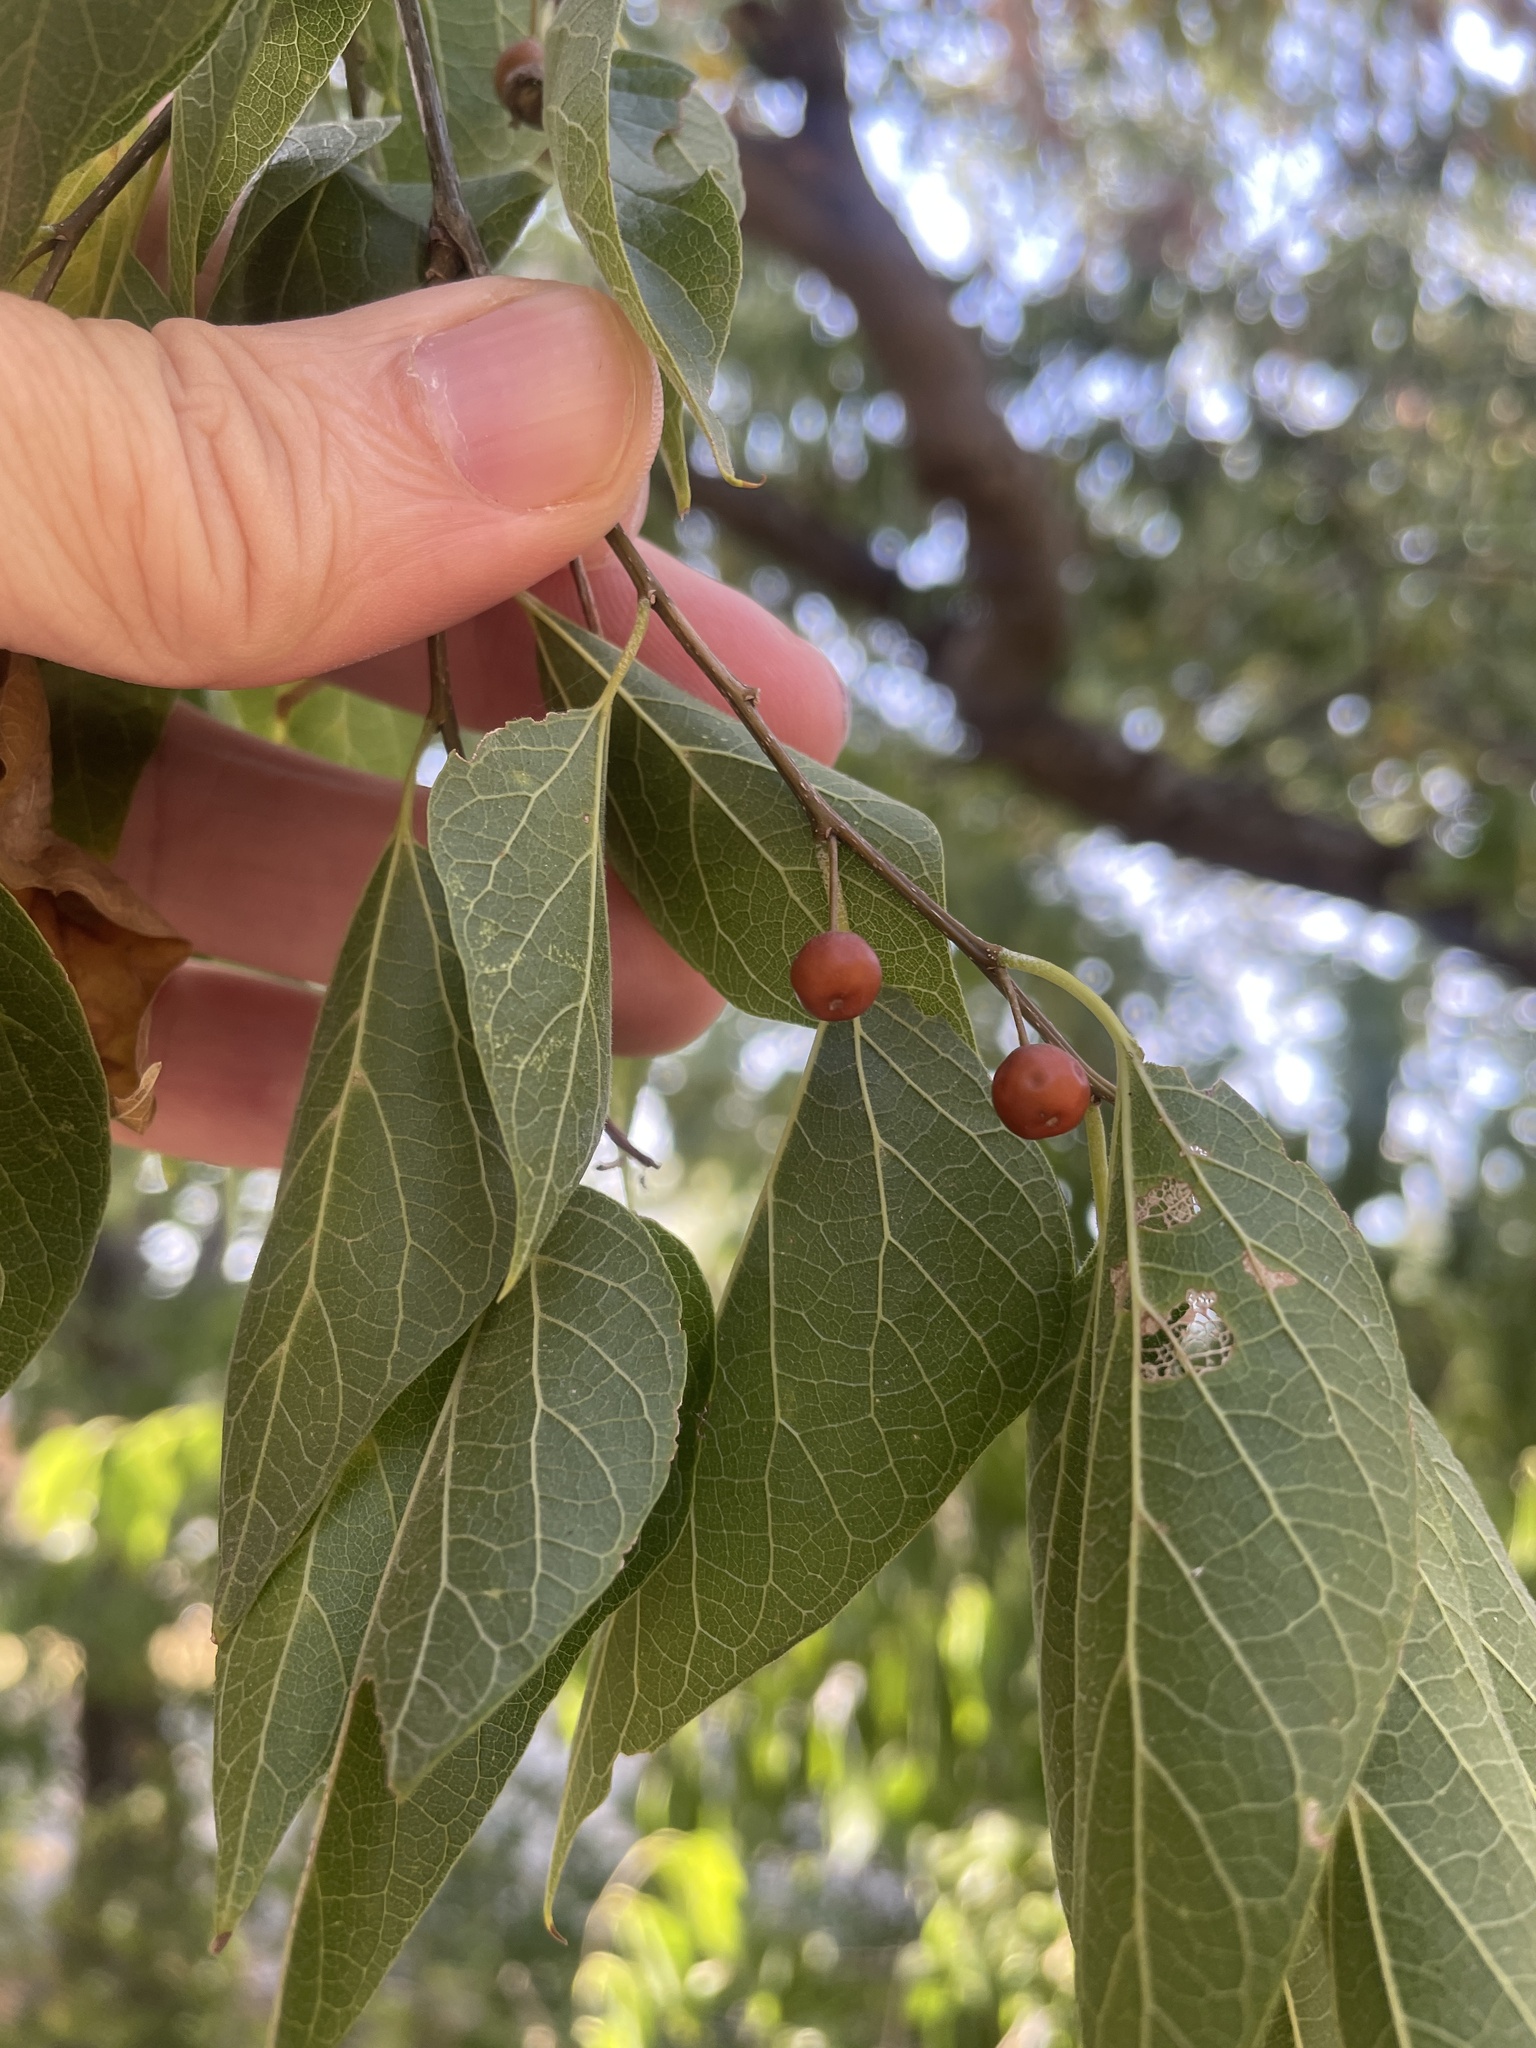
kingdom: Plantae
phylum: Tracheophyta
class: Magnoliopsida
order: Rosales
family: Cannabaceae
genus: Celtis
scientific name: Celtis laevigata
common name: Sugarberry
